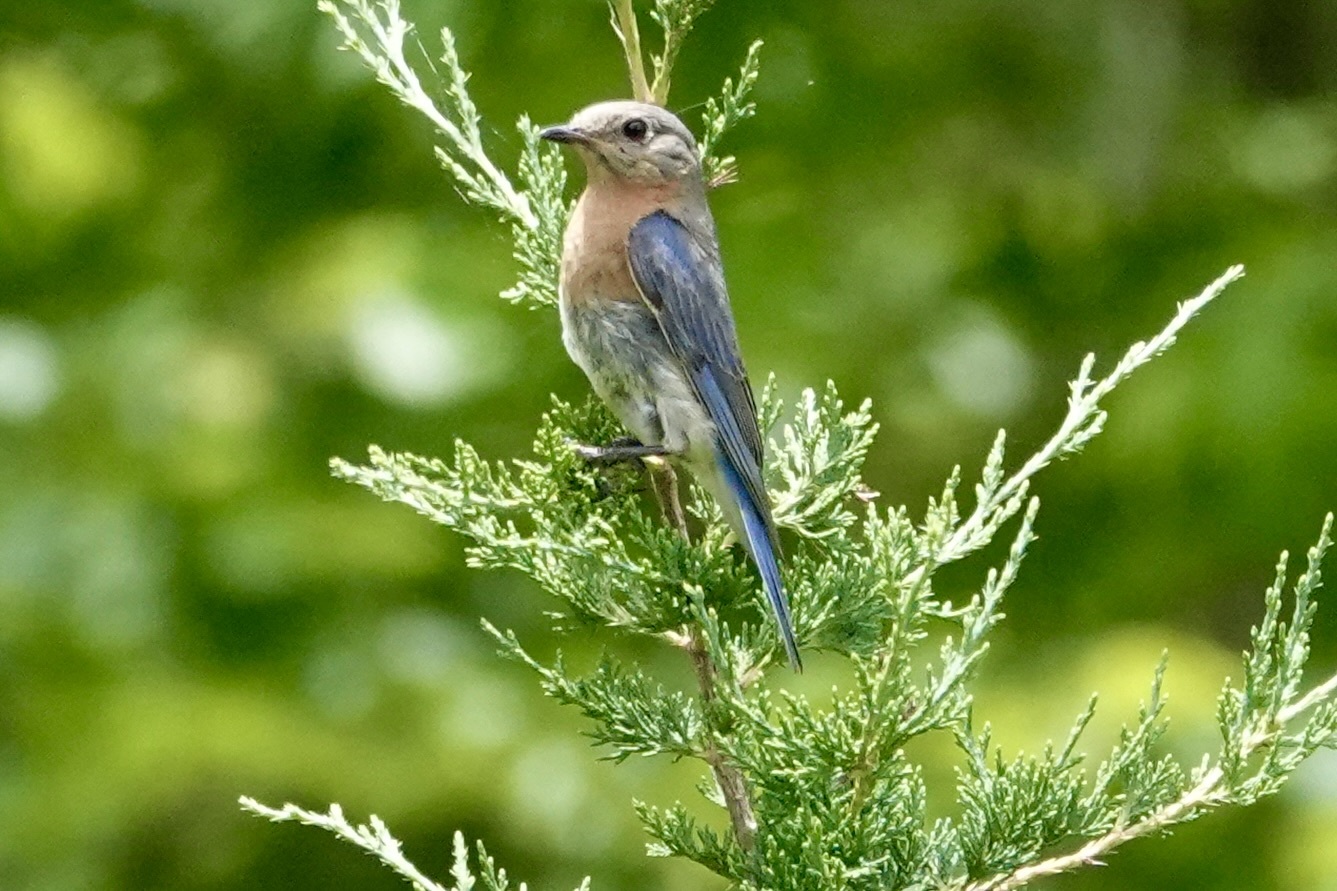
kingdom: Animalia
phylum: Chordata
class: Aves
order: Passeriformes
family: Turdidae
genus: Sialia
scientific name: Sialia sialis
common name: Eastern bluebird
